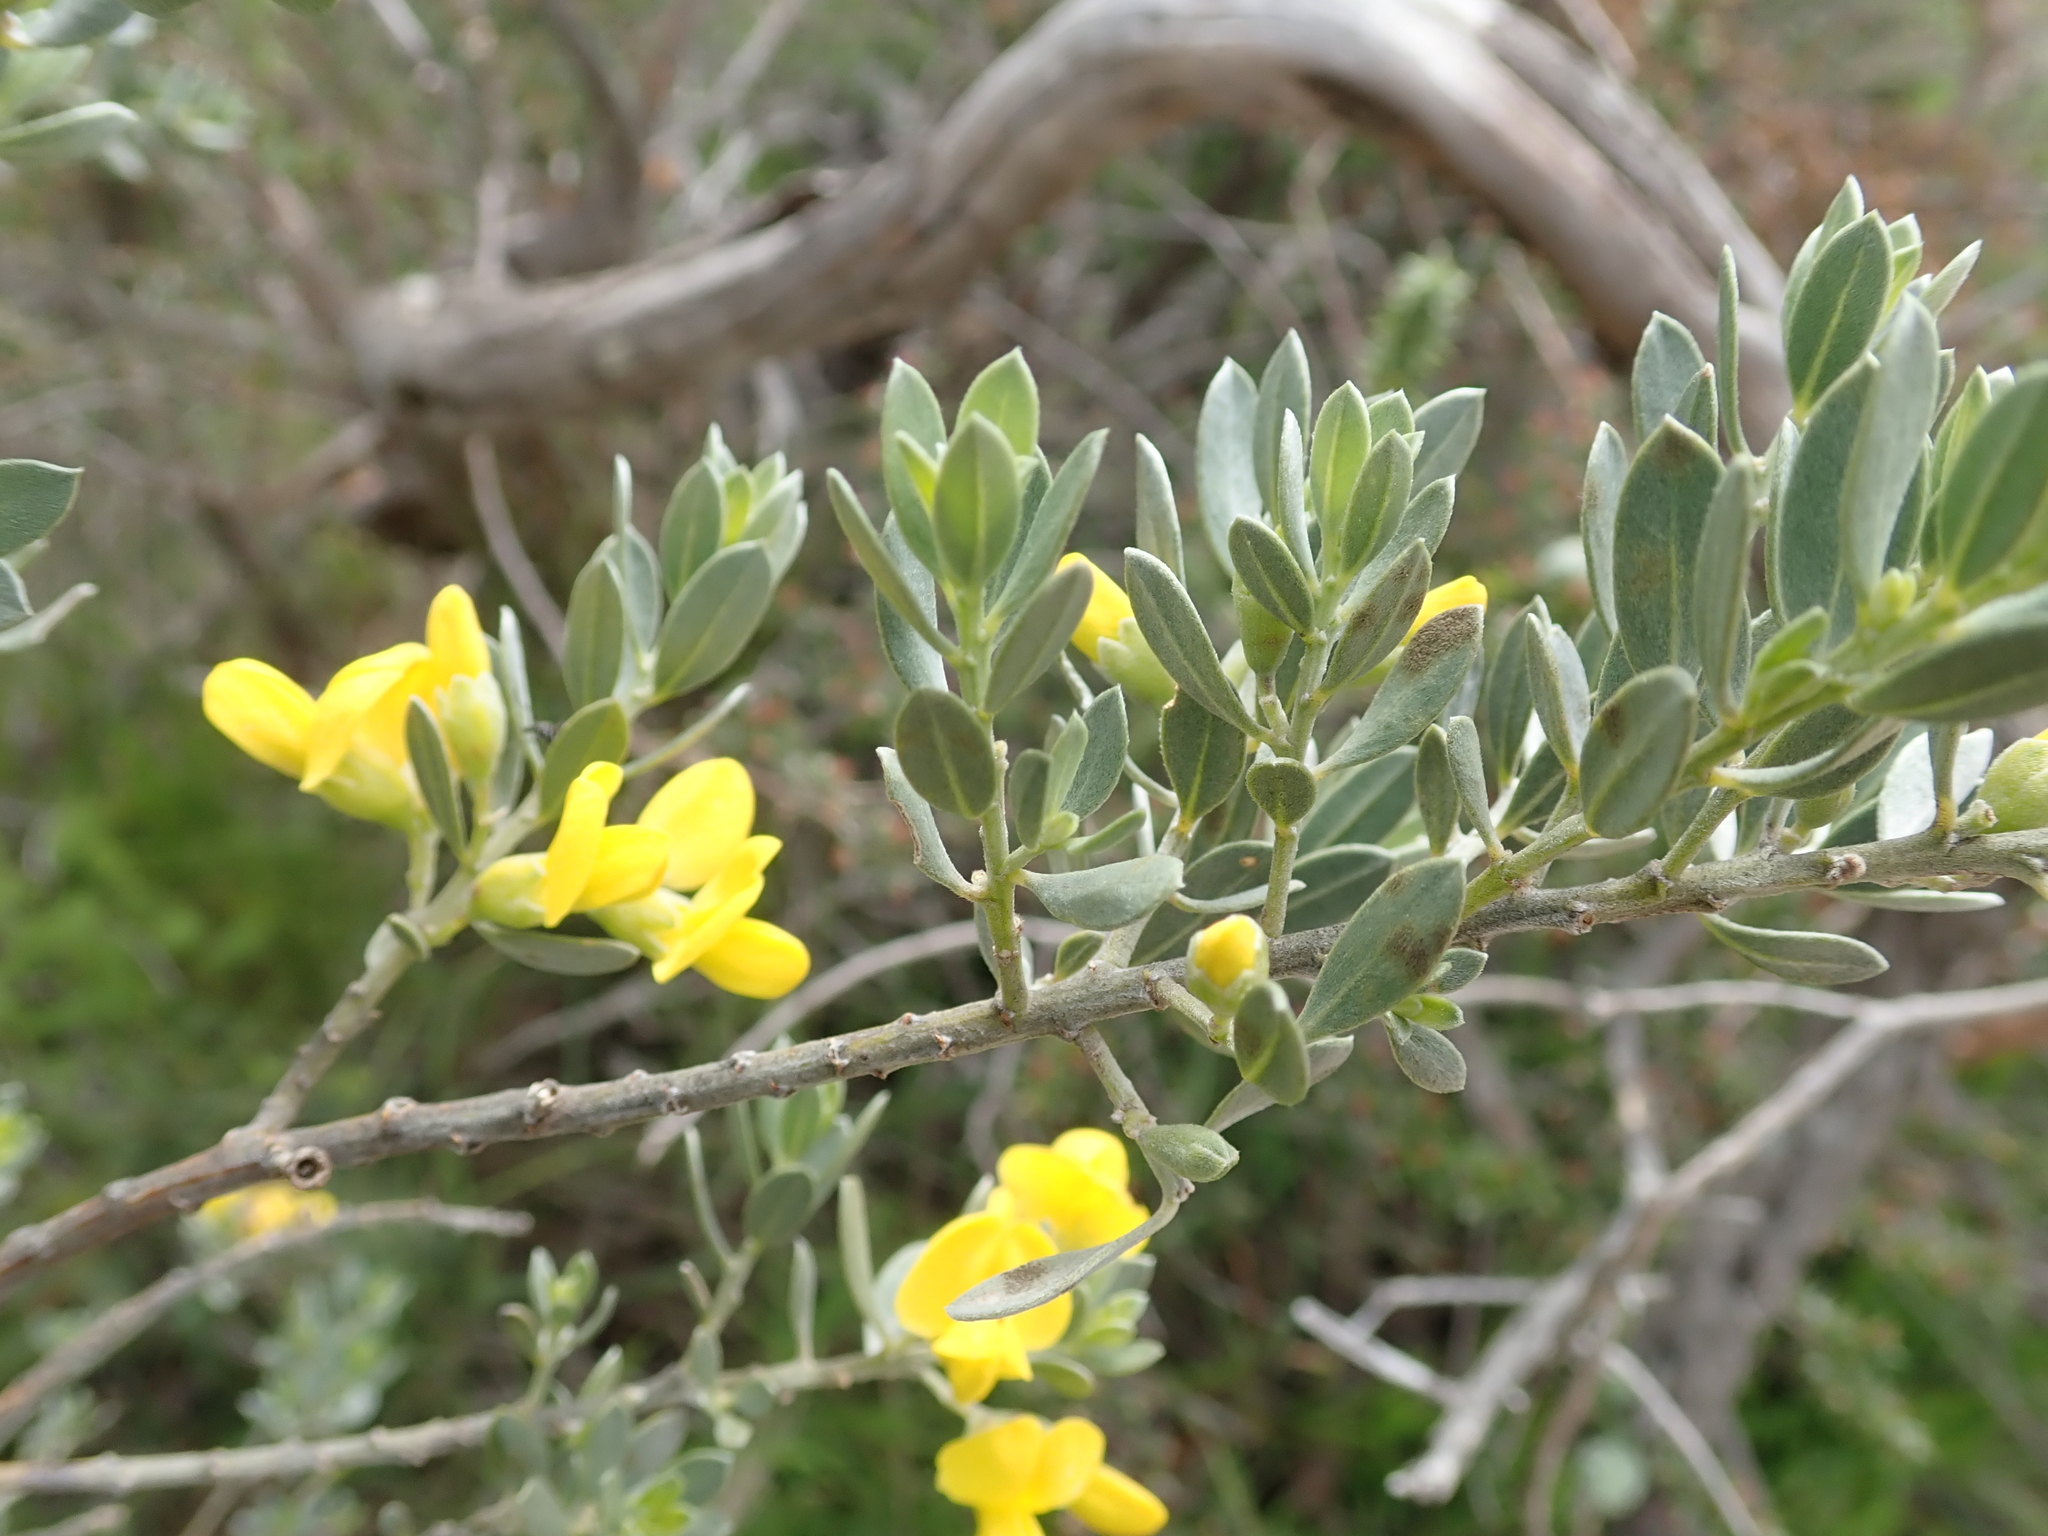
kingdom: Plantae
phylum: Tracheophyta
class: Magnoliopsida
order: Fabales
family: Fabaceae
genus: Xiphotheca
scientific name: Xiphotheca canescens
